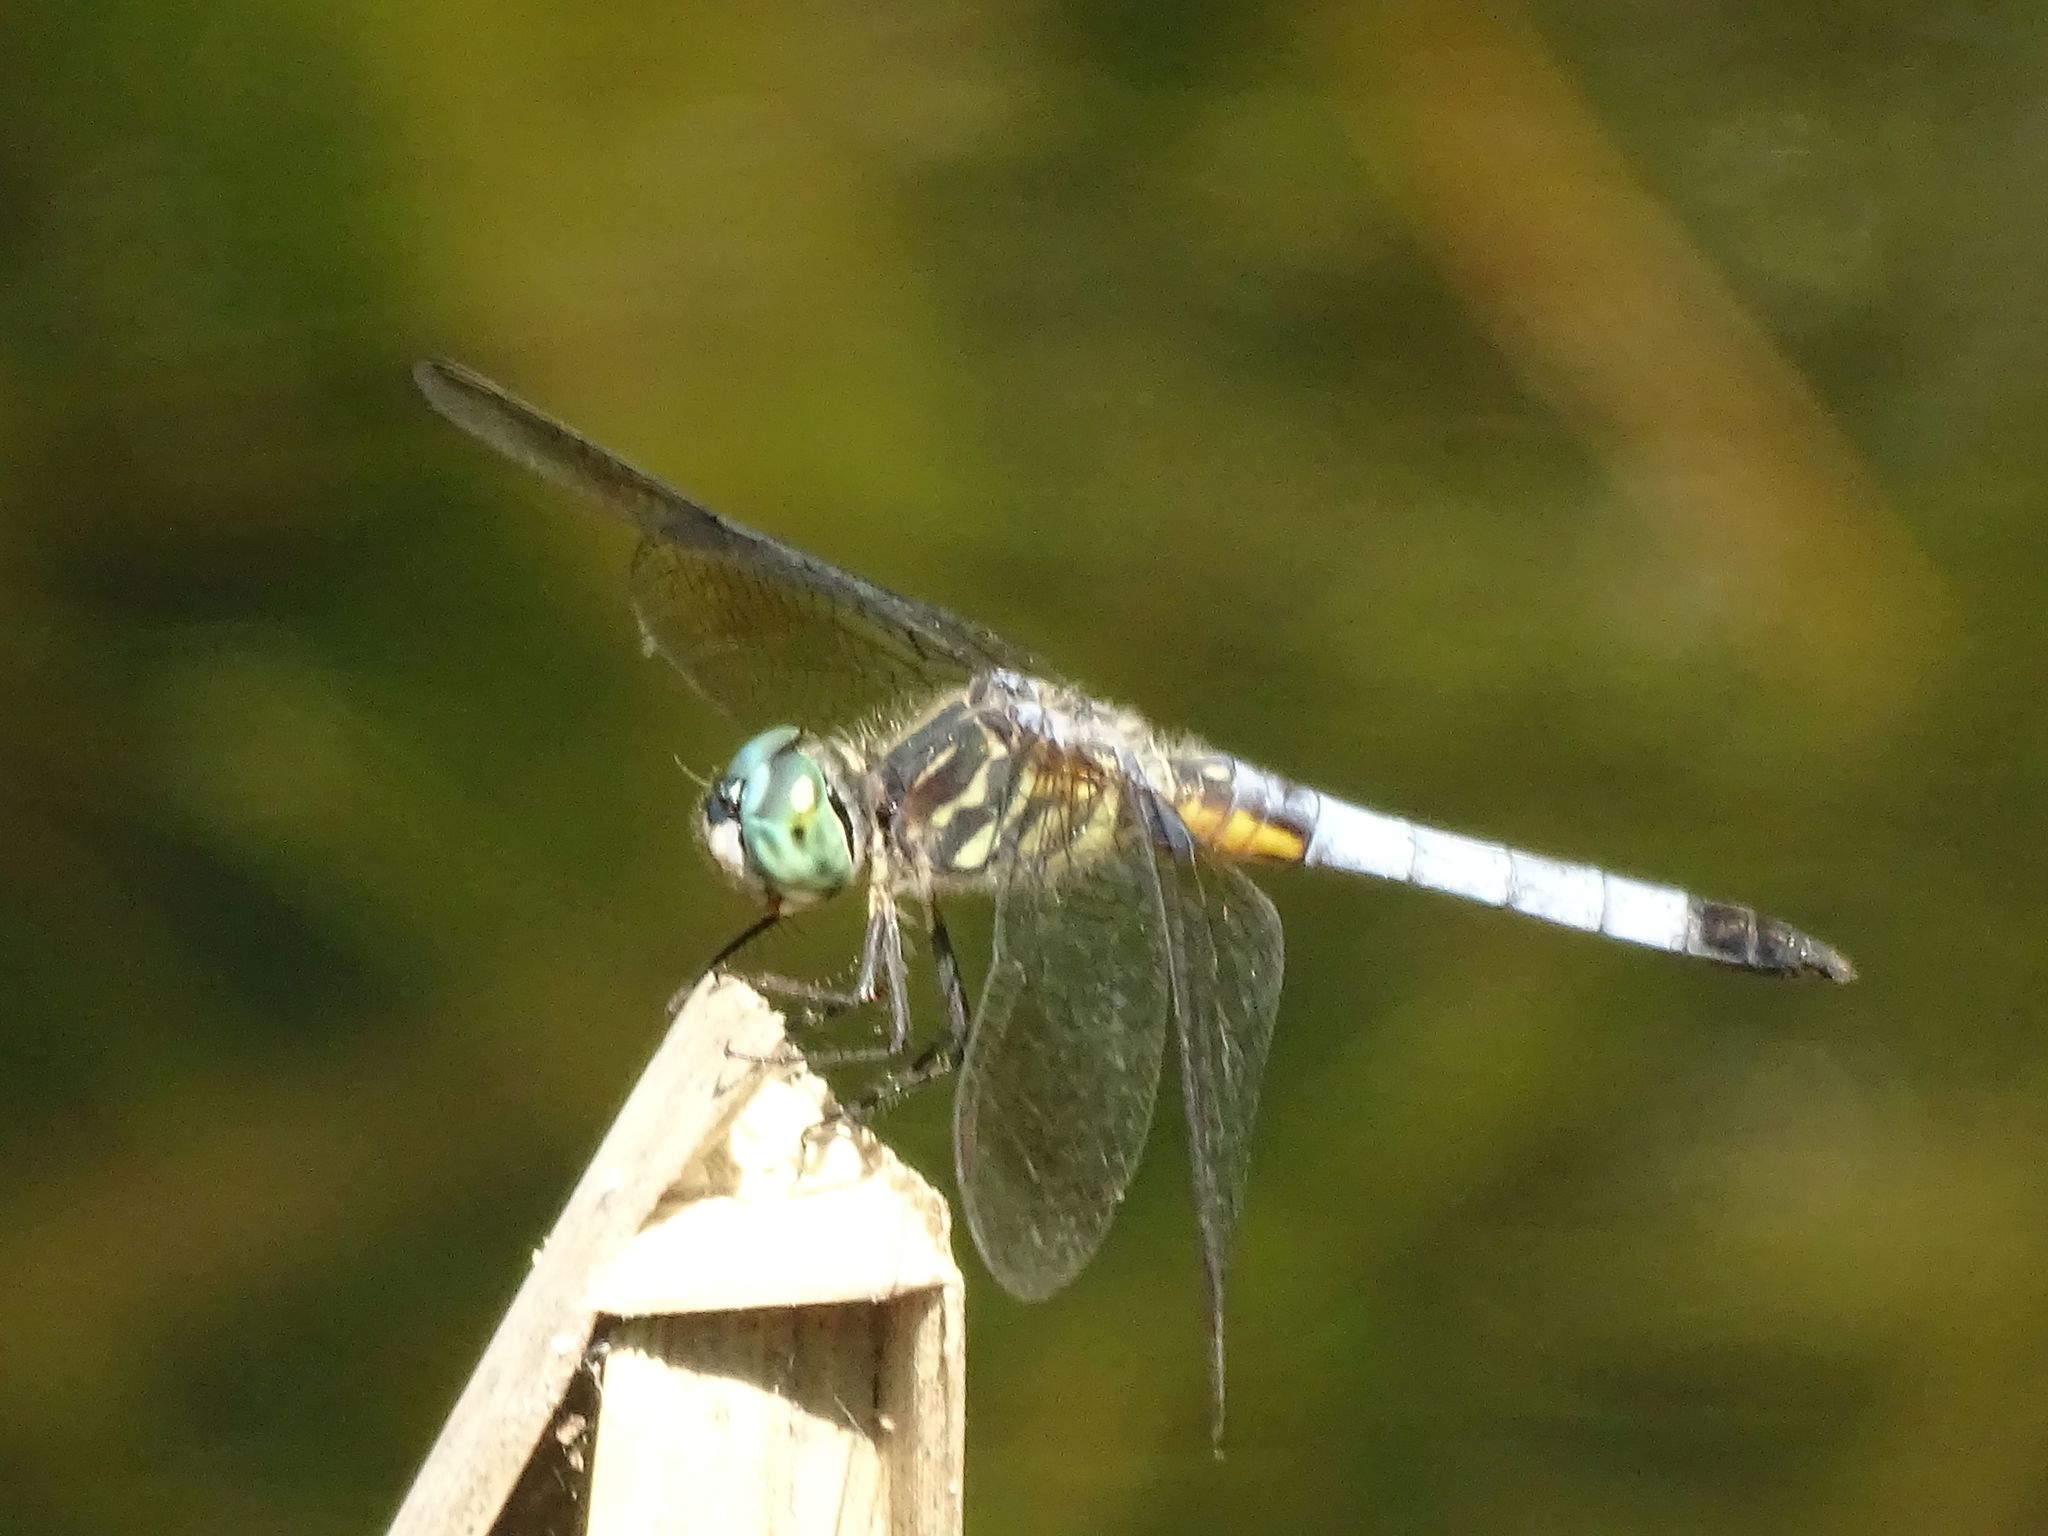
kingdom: Animalia
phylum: Arthropoda
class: Insecta
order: Odonata
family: Libellulidae
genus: Pachydiplax
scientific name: Pachydiplax longipennis
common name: Blue dasher
